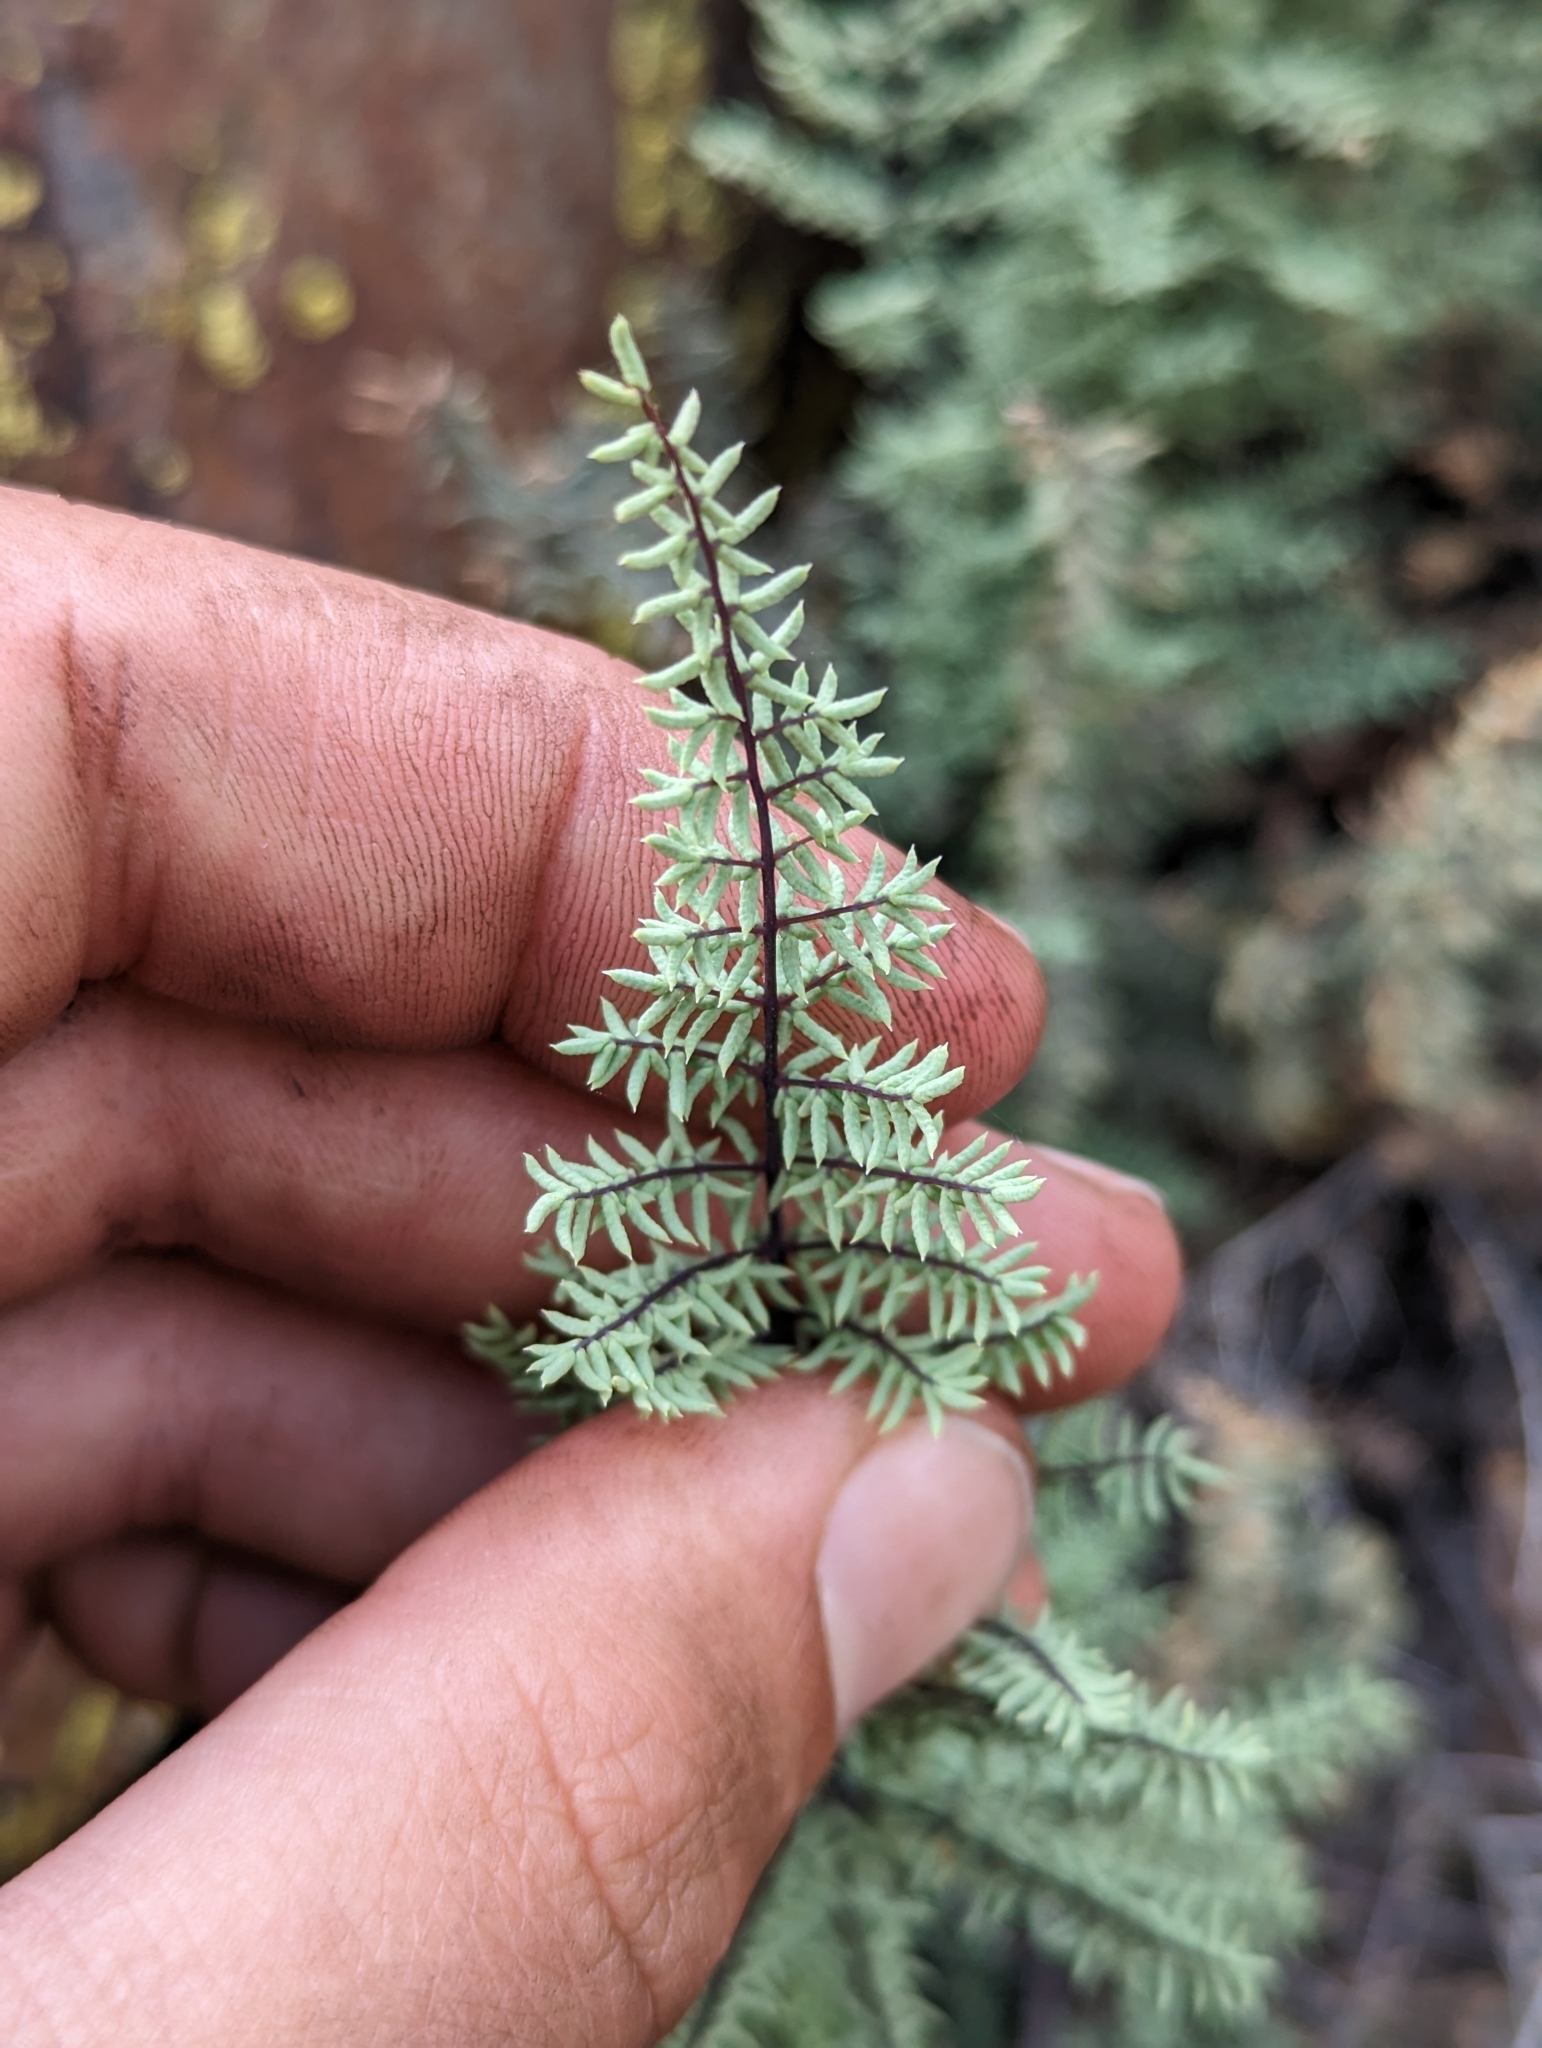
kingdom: Plantae
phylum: Tracheophyta
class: Polypodiopsida
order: Polypodiales
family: Pteridaceae
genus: Pellaea
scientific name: Pellaea mucronata
